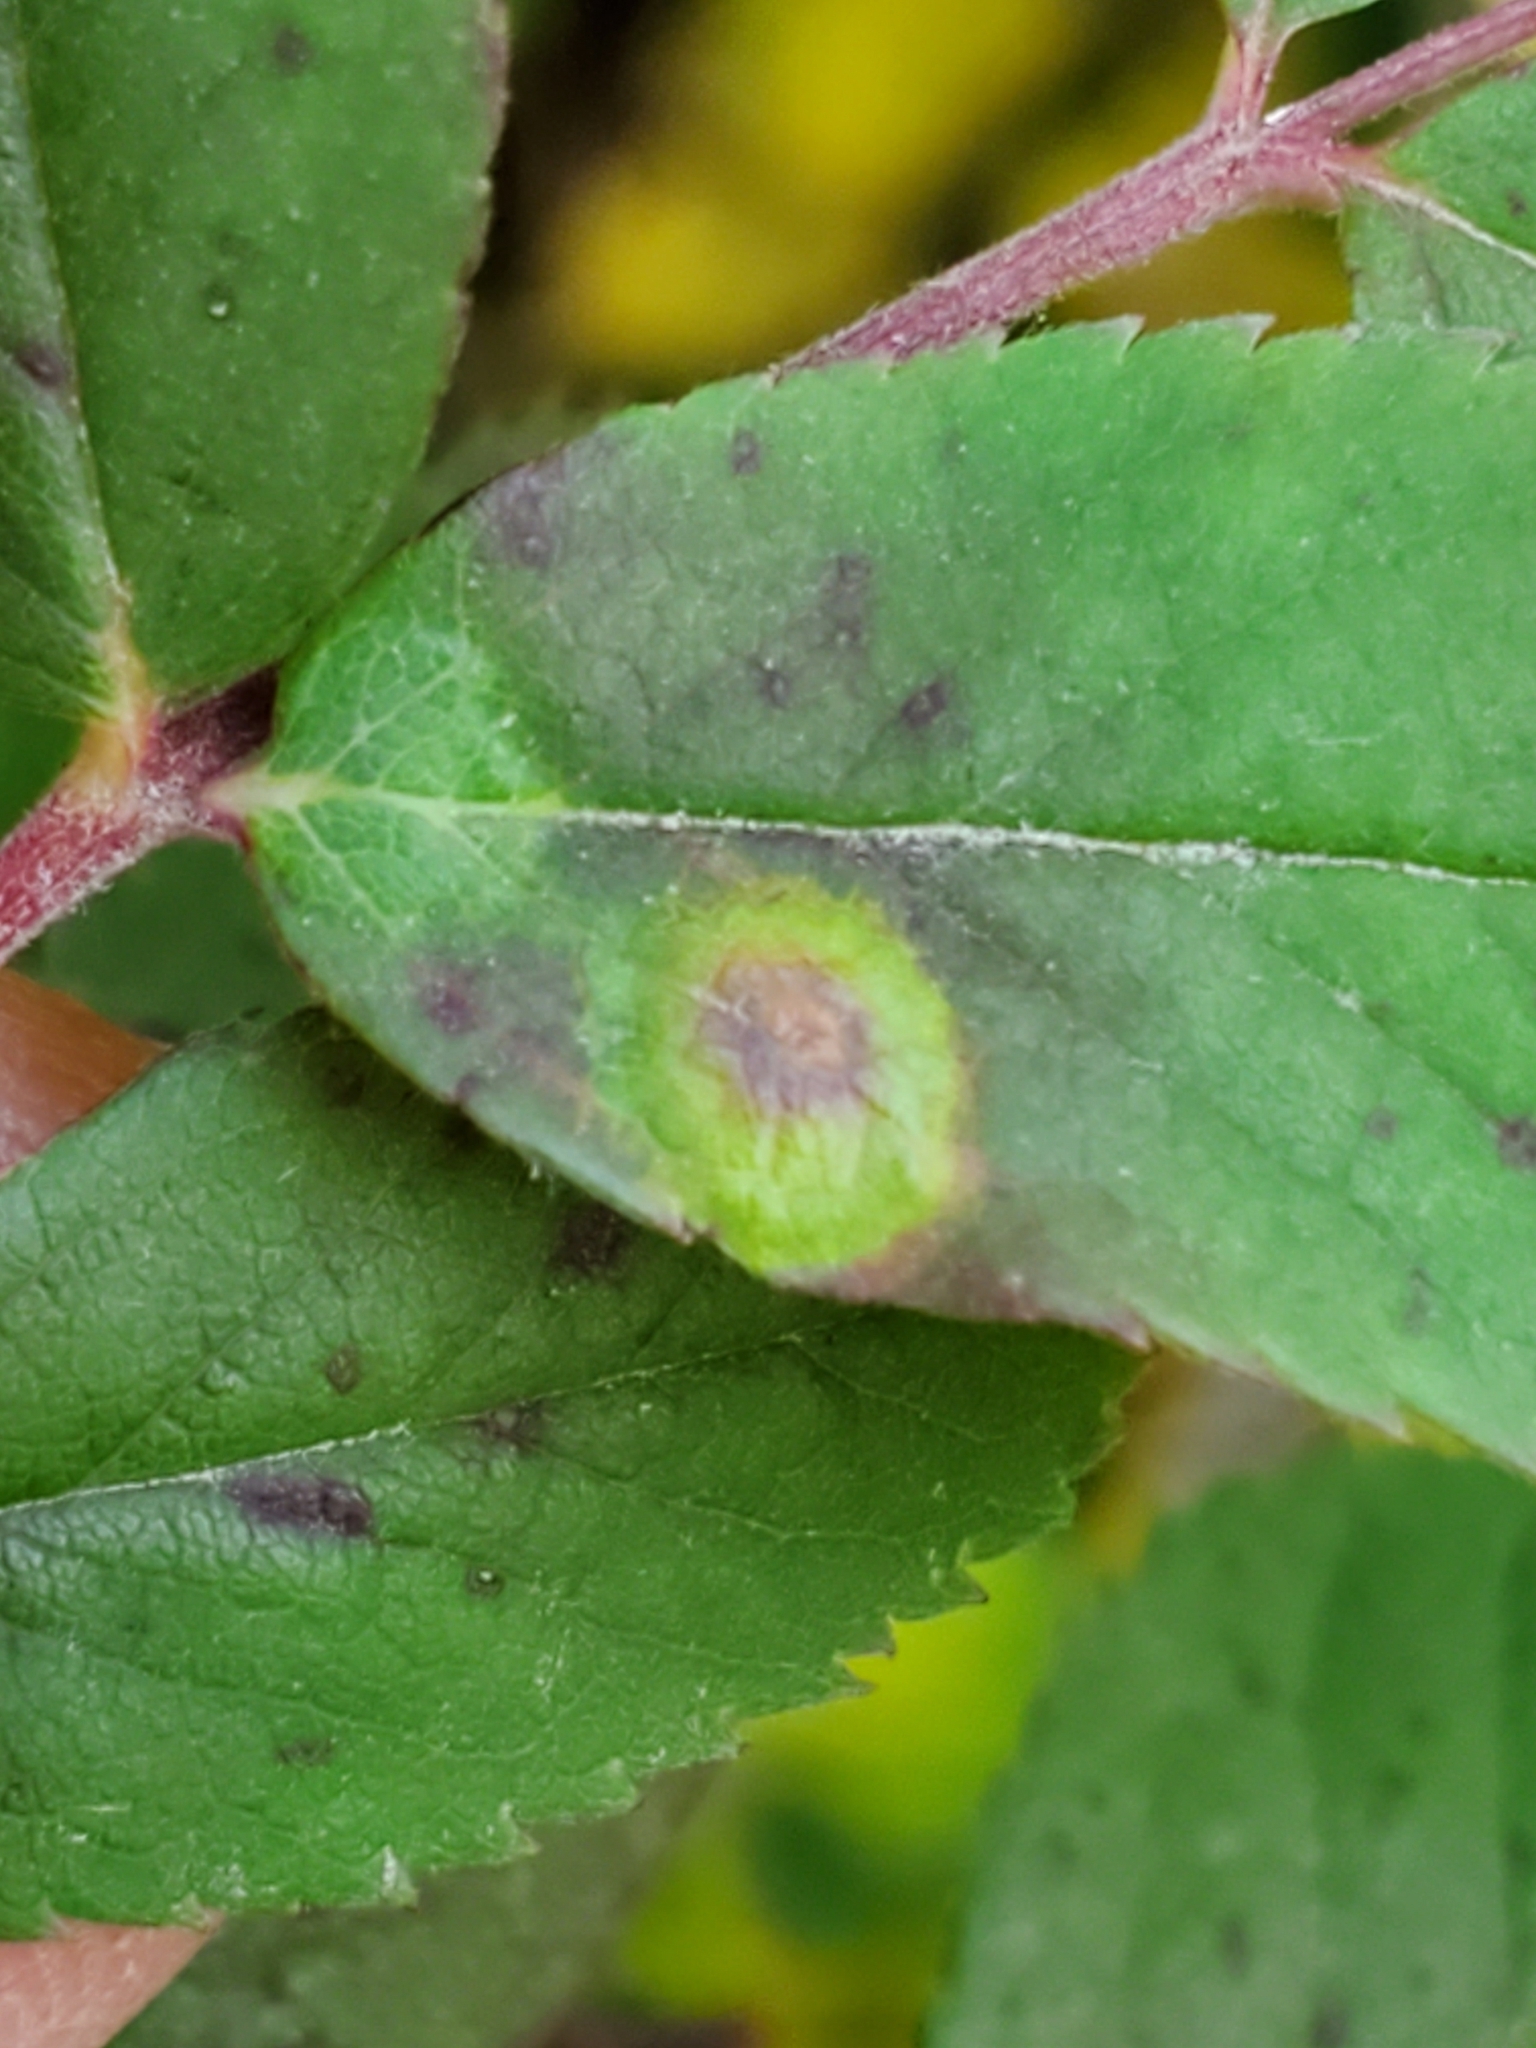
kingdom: Animalia
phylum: Arthropoda
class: Insecta
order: Hymenoptera
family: Cynipidae
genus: Diplolepis
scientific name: Diplolepis rosaefolii
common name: Blister-gall wasp
